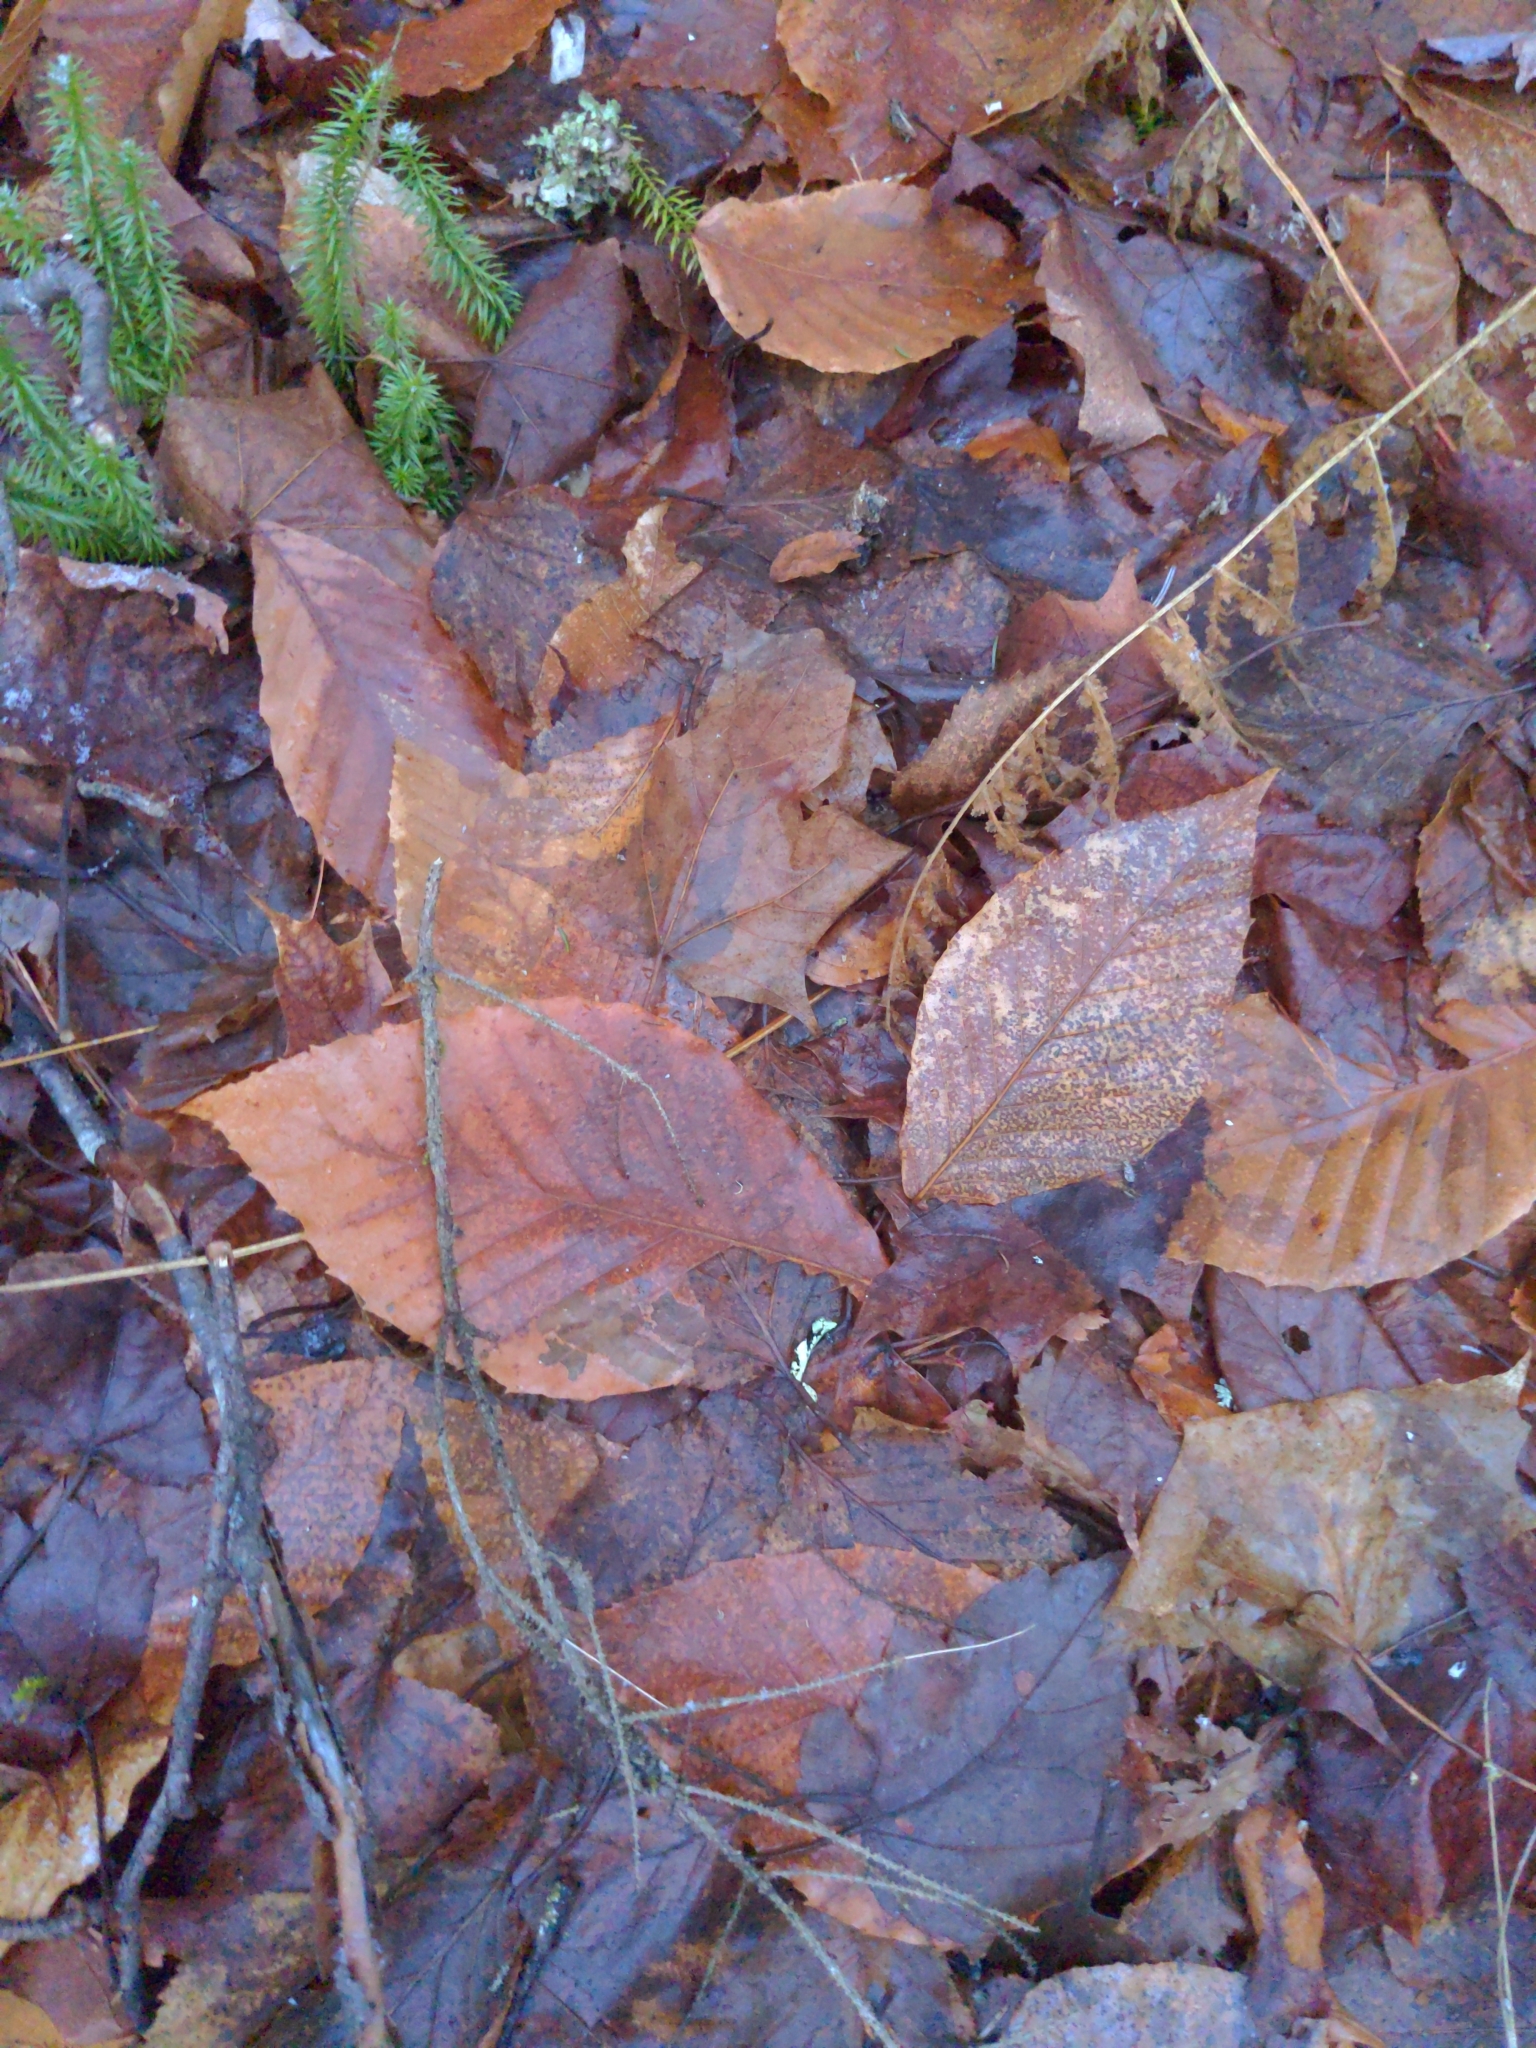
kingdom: Plantae
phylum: Tracheophyta
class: Magnoliopsida
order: Fagales
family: Fagaceae
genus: Fagus
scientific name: Fagus grandifolia
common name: American beech
